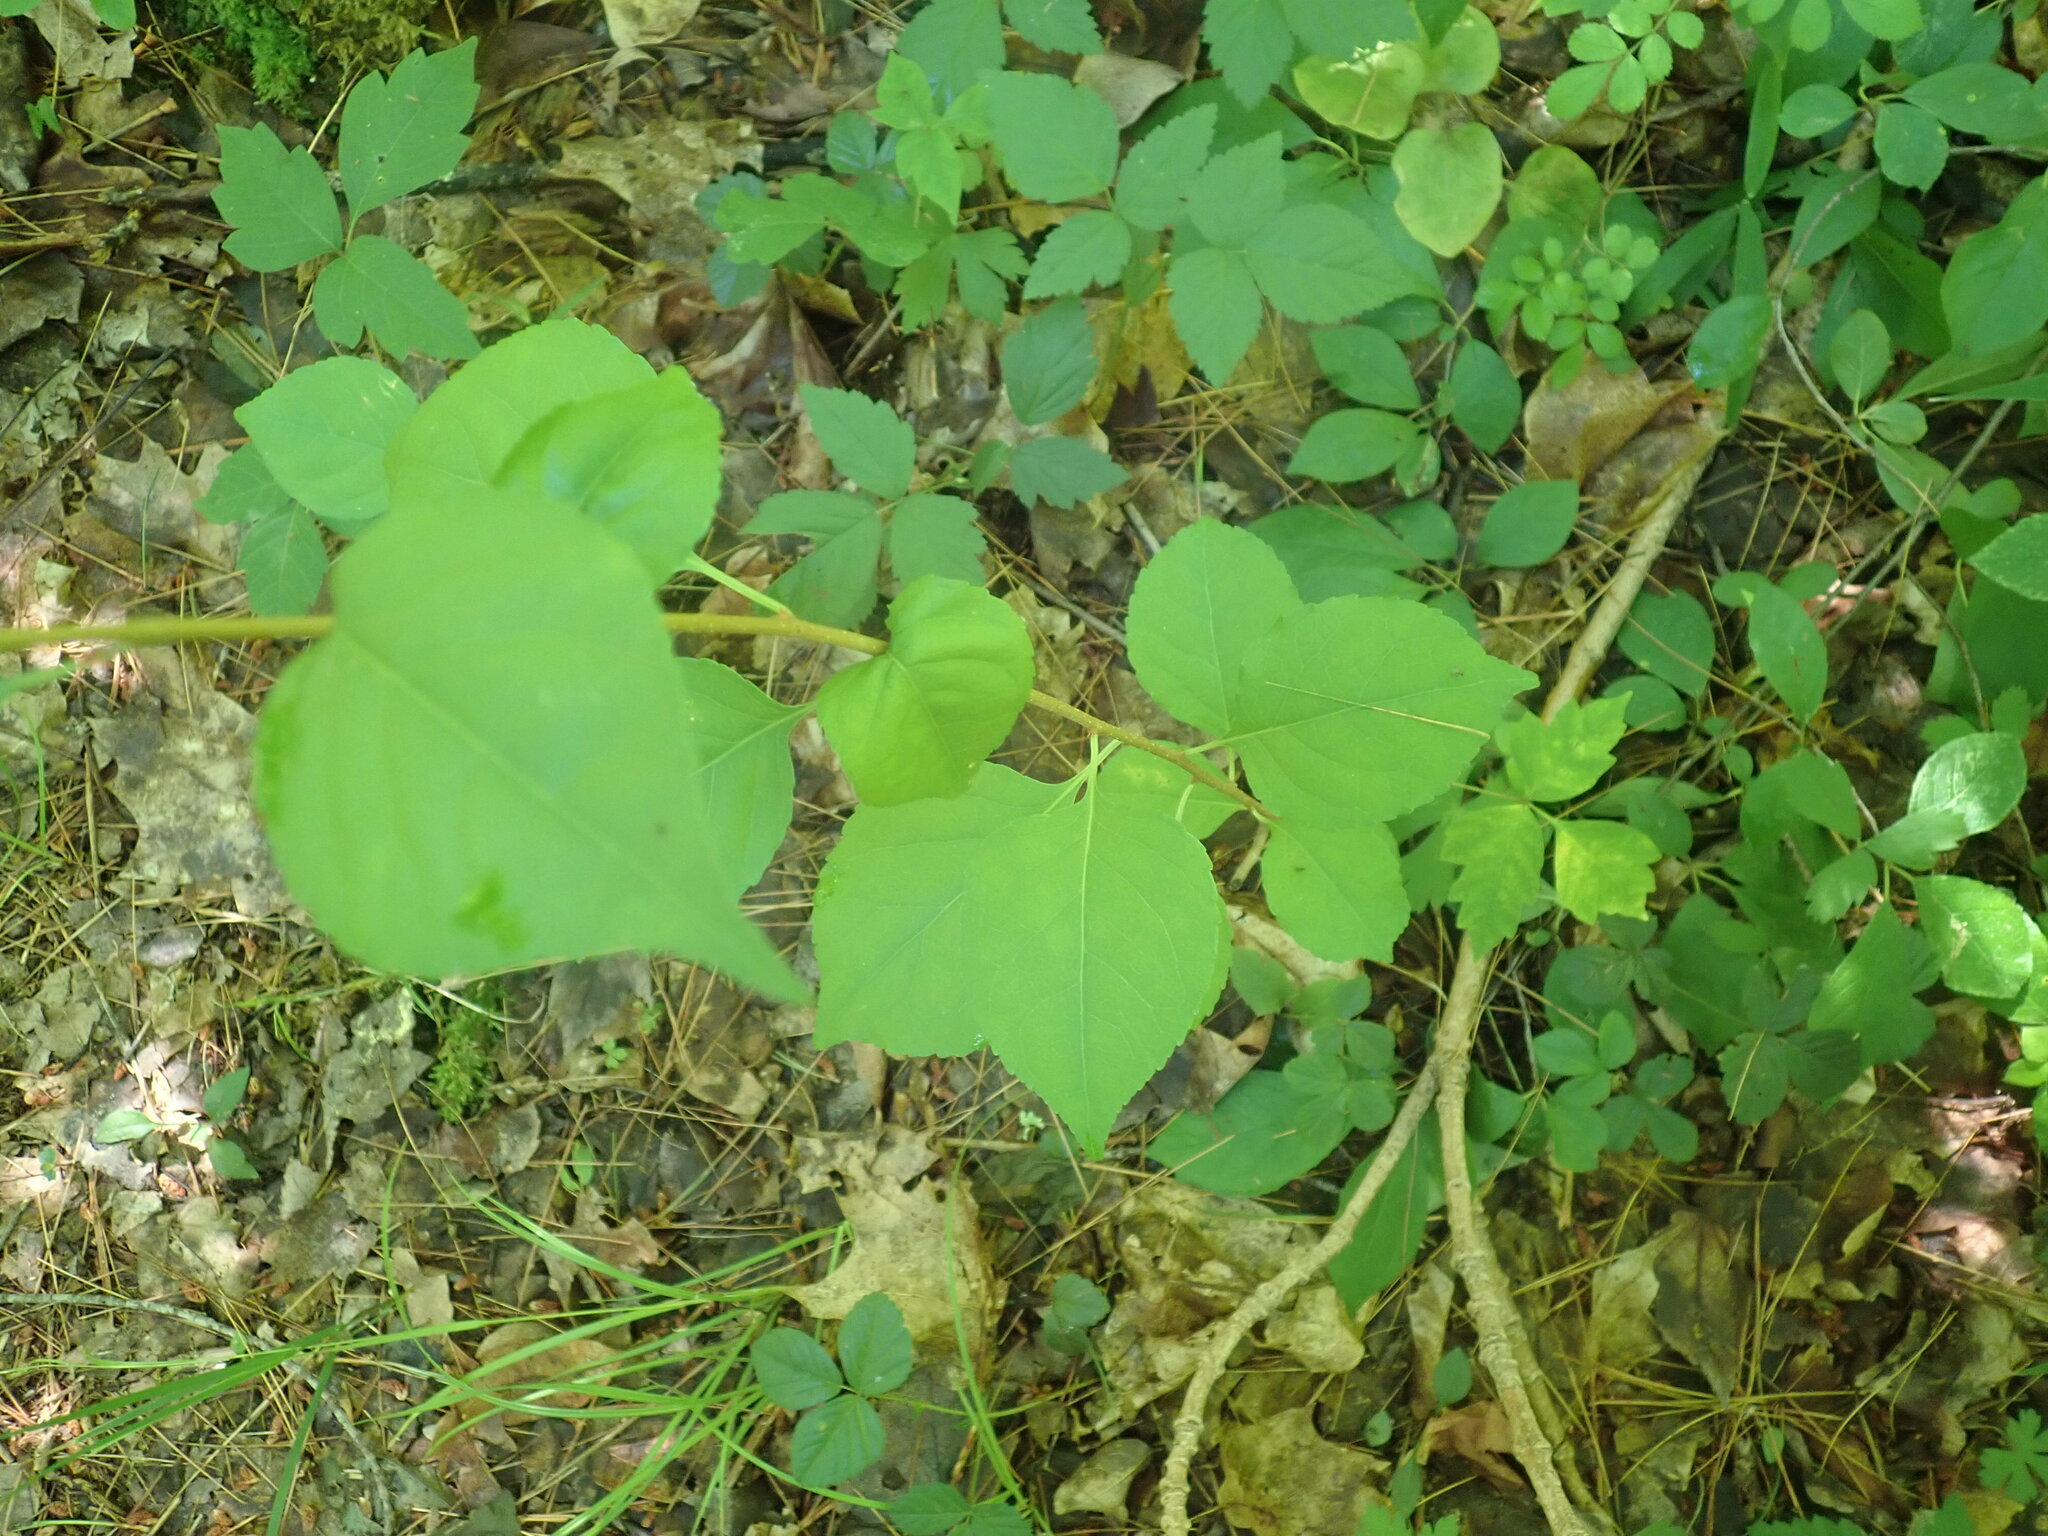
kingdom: Plantae
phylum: Tracheophyta
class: Magnoliopsida
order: Celastrales
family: Celastraceae
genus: Celastrus
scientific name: Celastrus orbiculatus
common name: Oriental bittersweet
